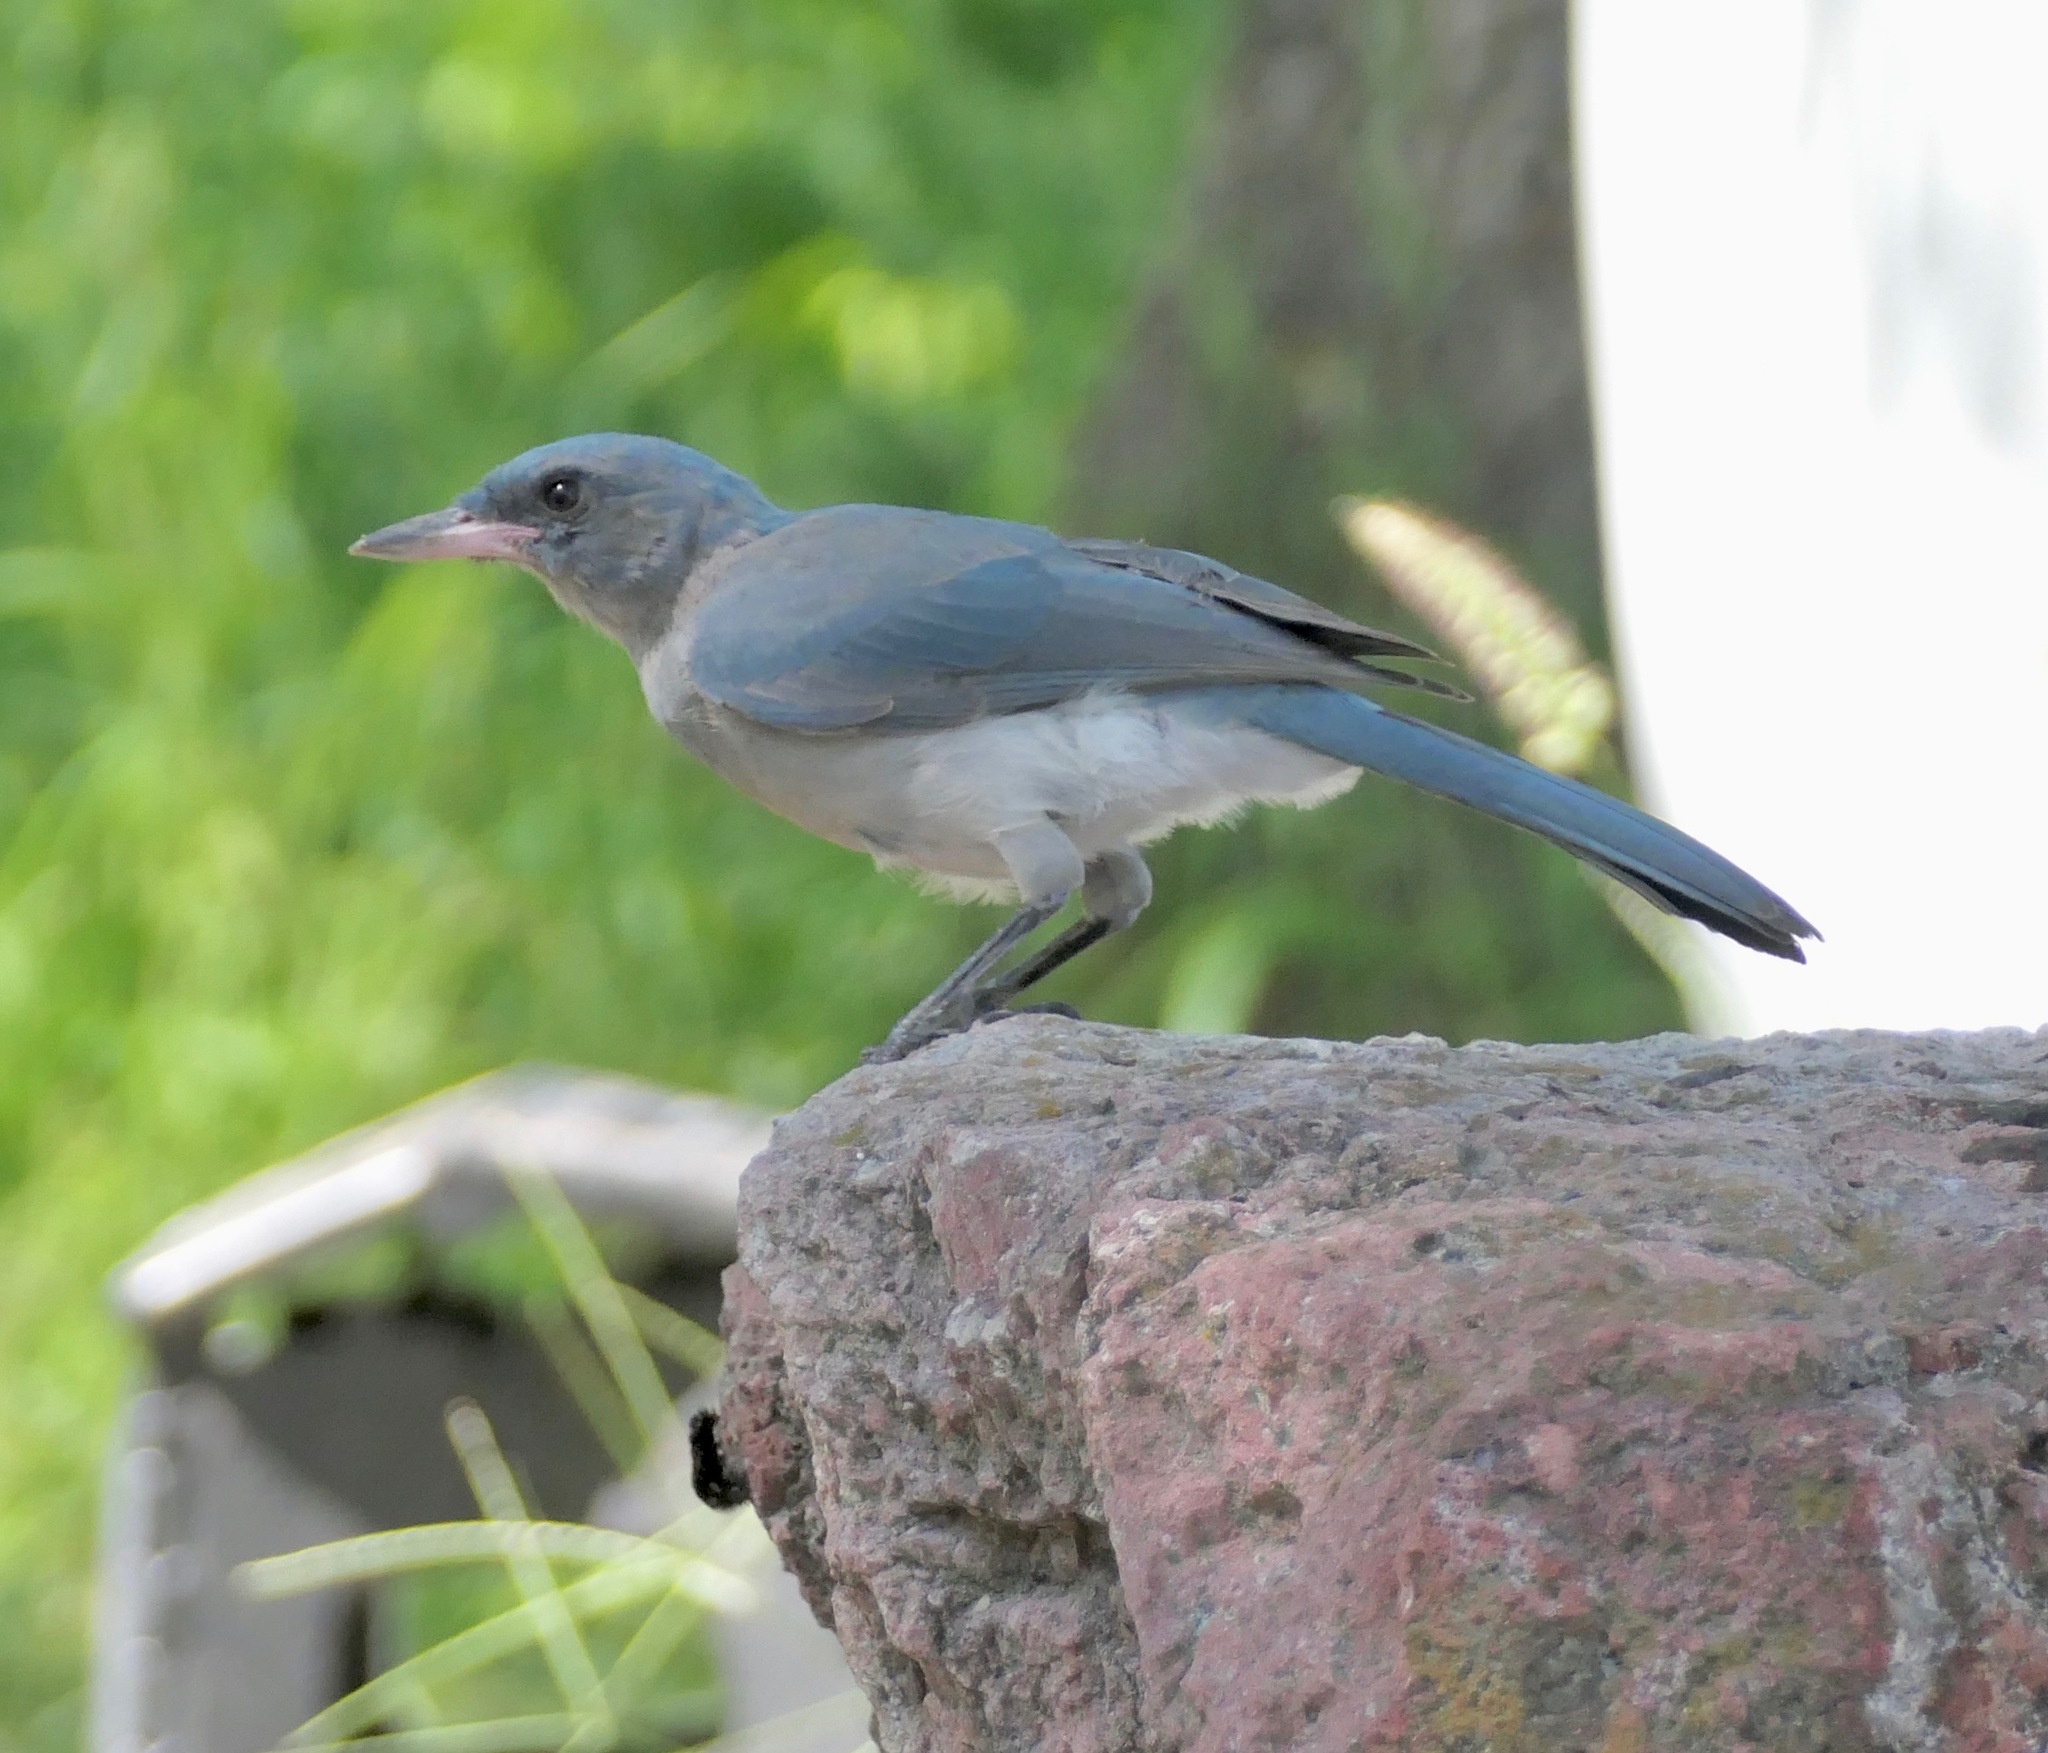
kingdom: Animalia
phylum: Chordata
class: Aves
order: Passeriformes
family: Corvidae
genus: Aphelocoma
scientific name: Aphelocoma wollweberi
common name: Mexican jay
